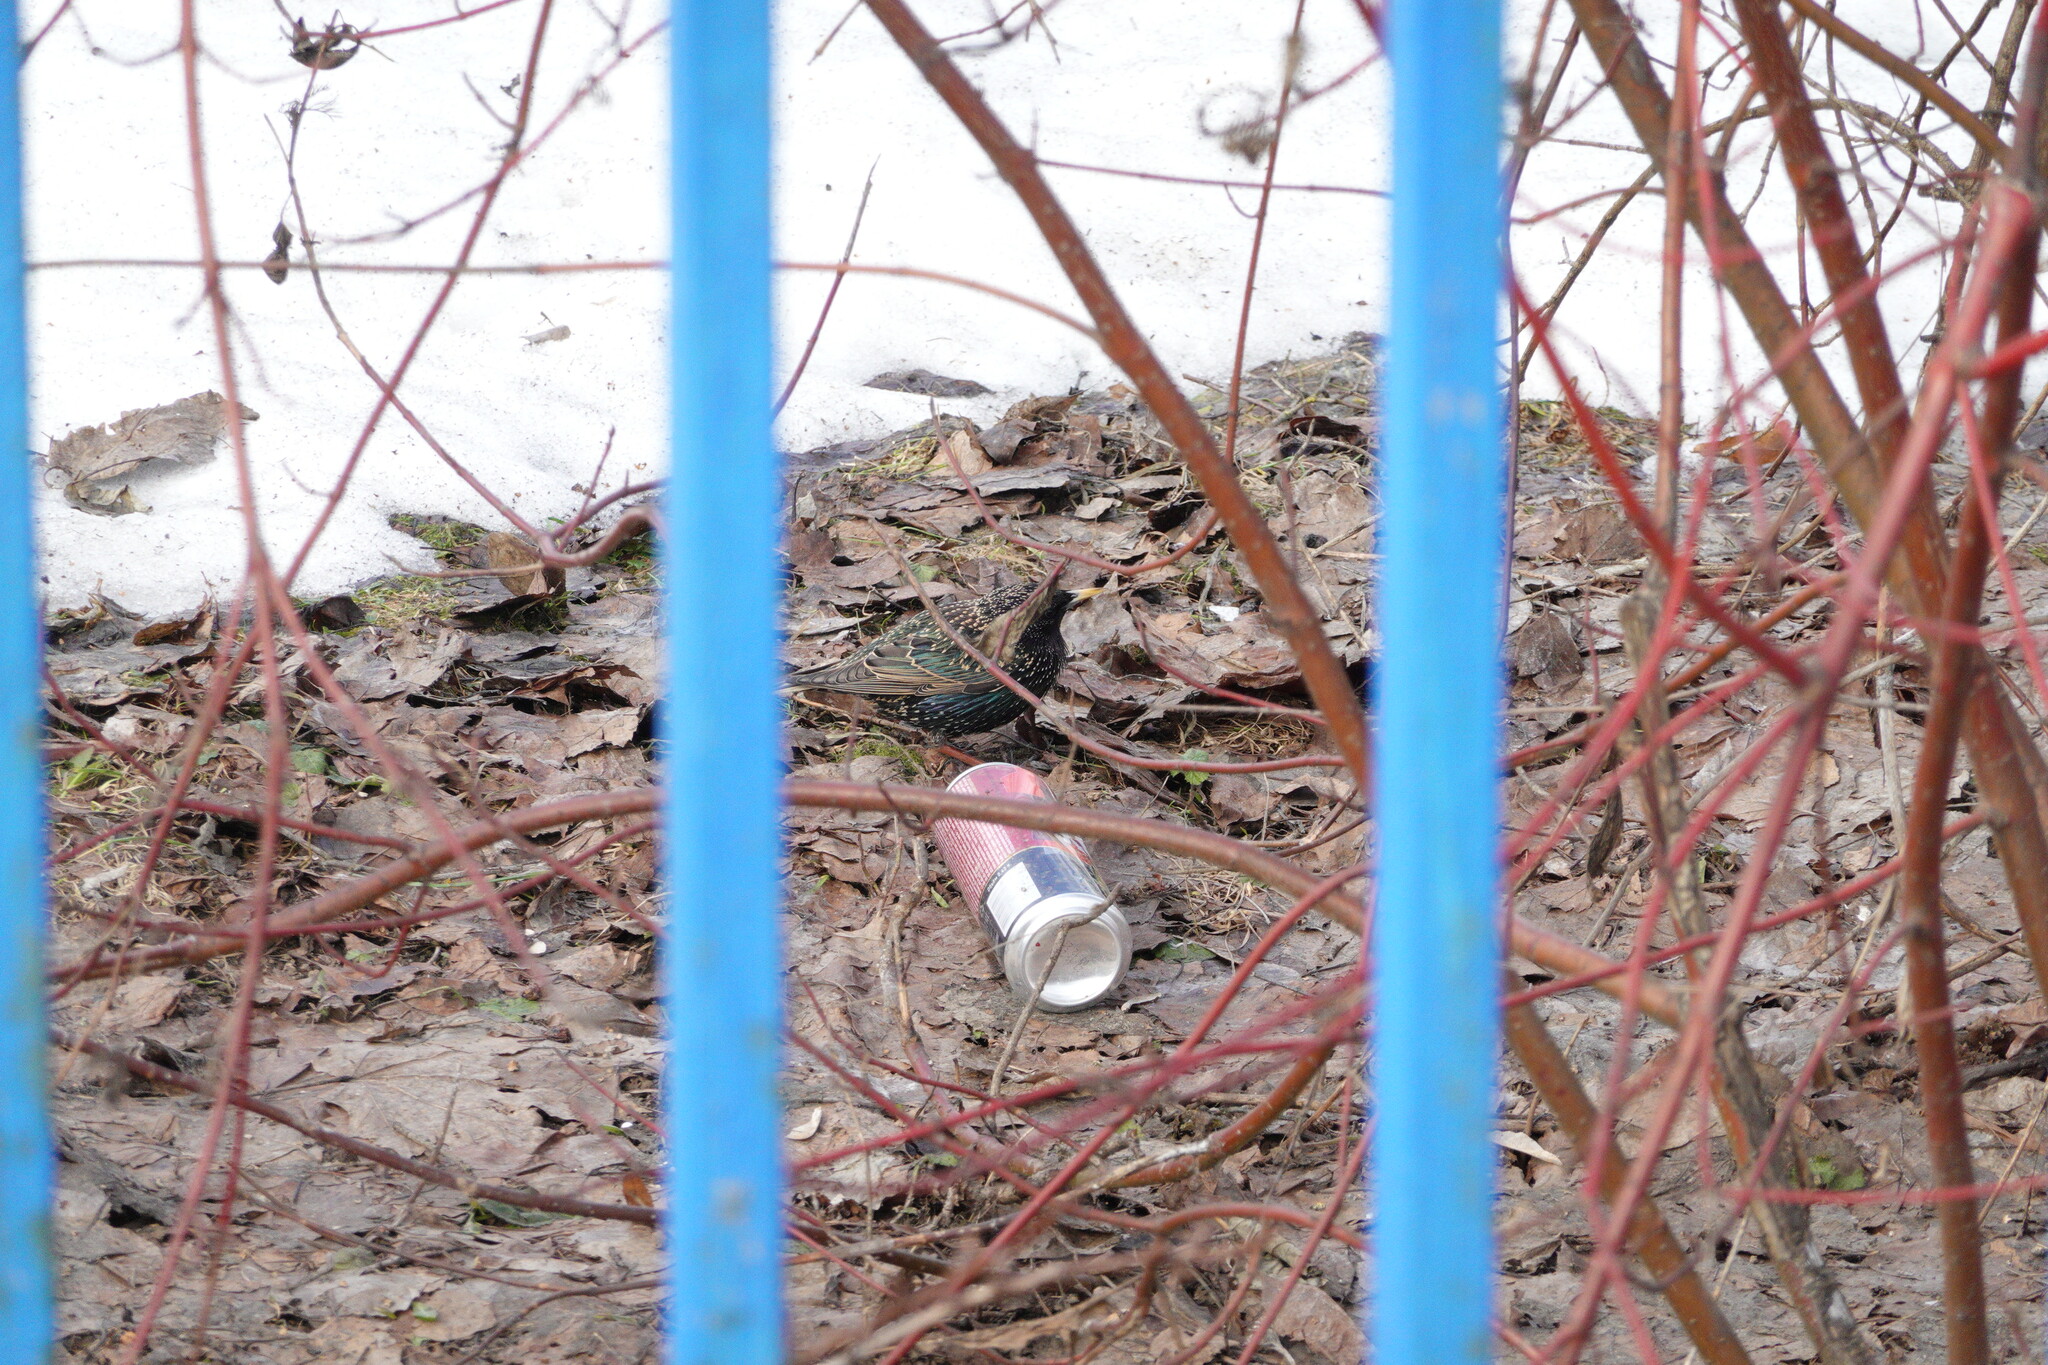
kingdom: Animalia
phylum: Chordata
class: Aves
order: Passeriformes
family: Sturnidae
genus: Sturnus
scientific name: Sturnus vulgaris
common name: Common starling
